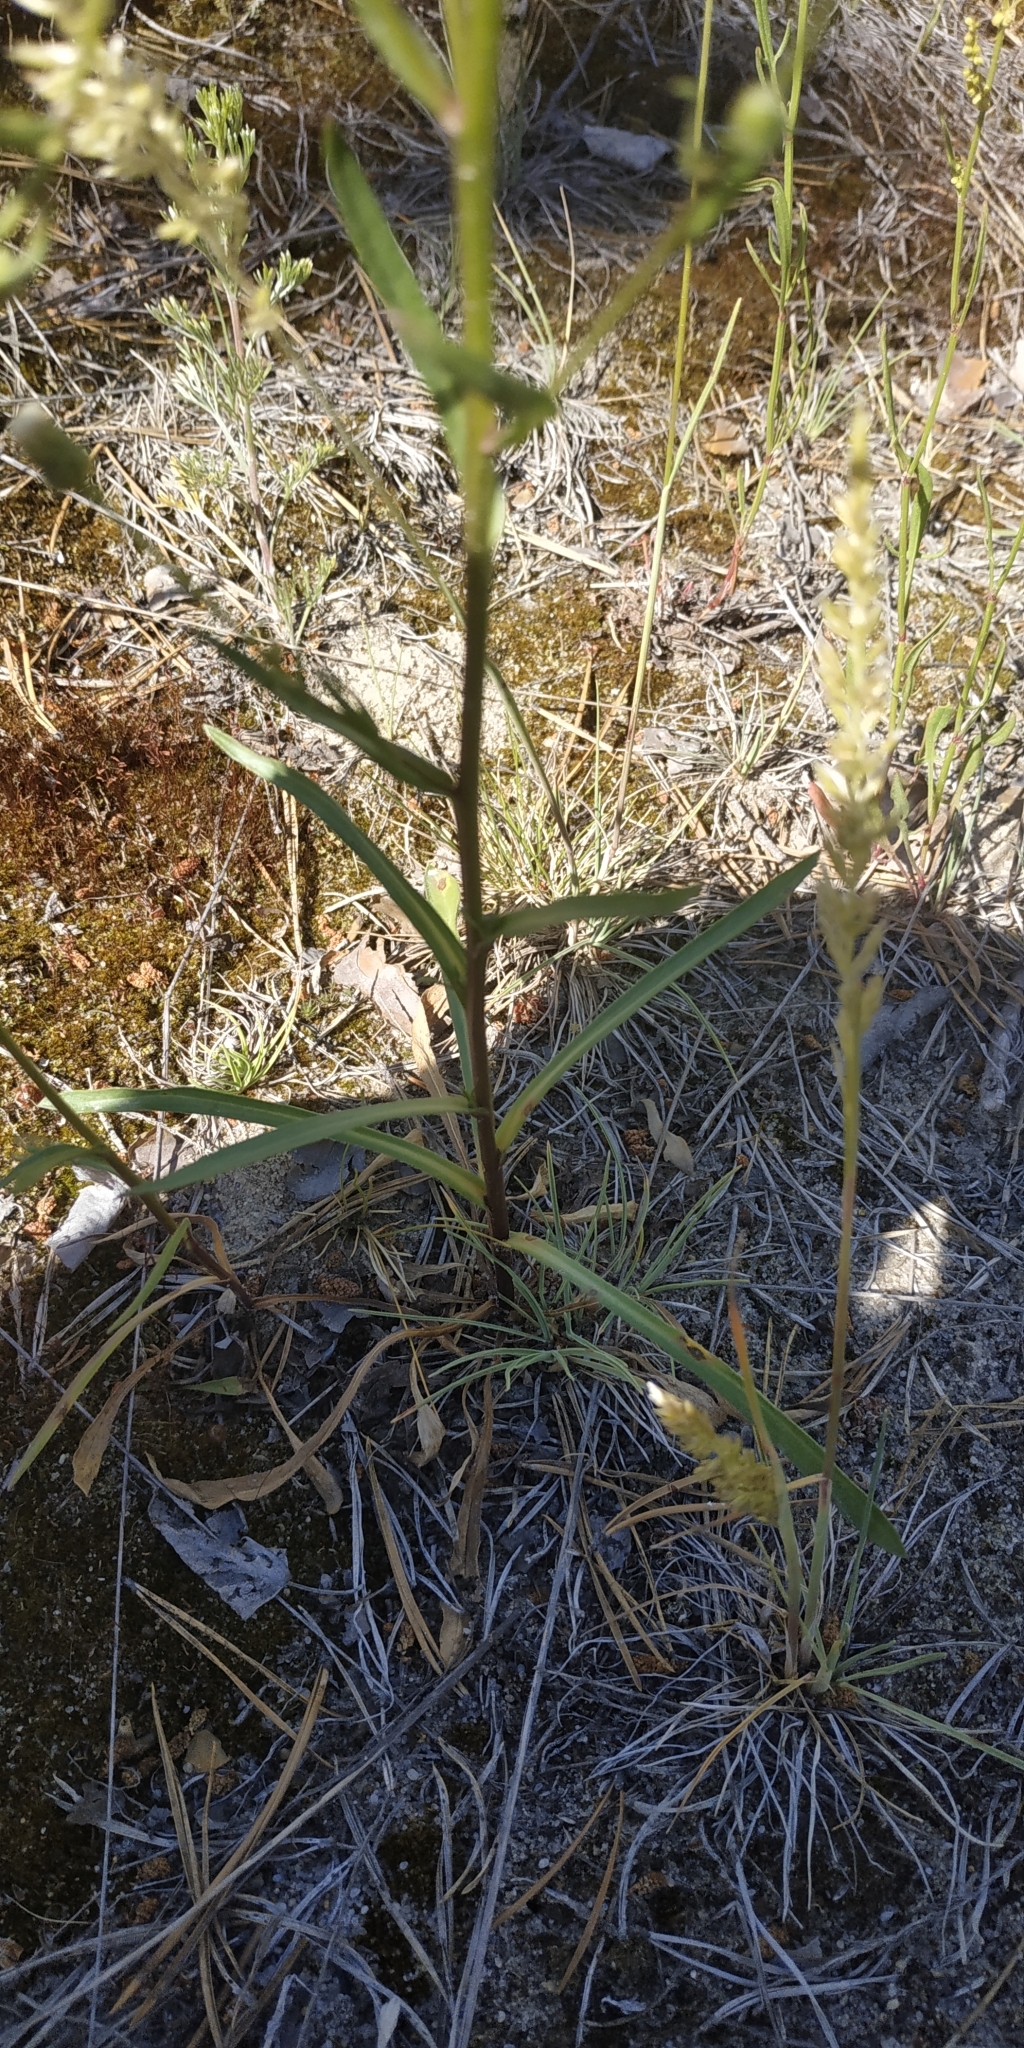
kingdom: Plantae
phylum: Tracheophyta
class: Magnoliopsida
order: Asterales
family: Asteraceae
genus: Erigeron
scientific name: Erigeron acris
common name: Blue fleabane
